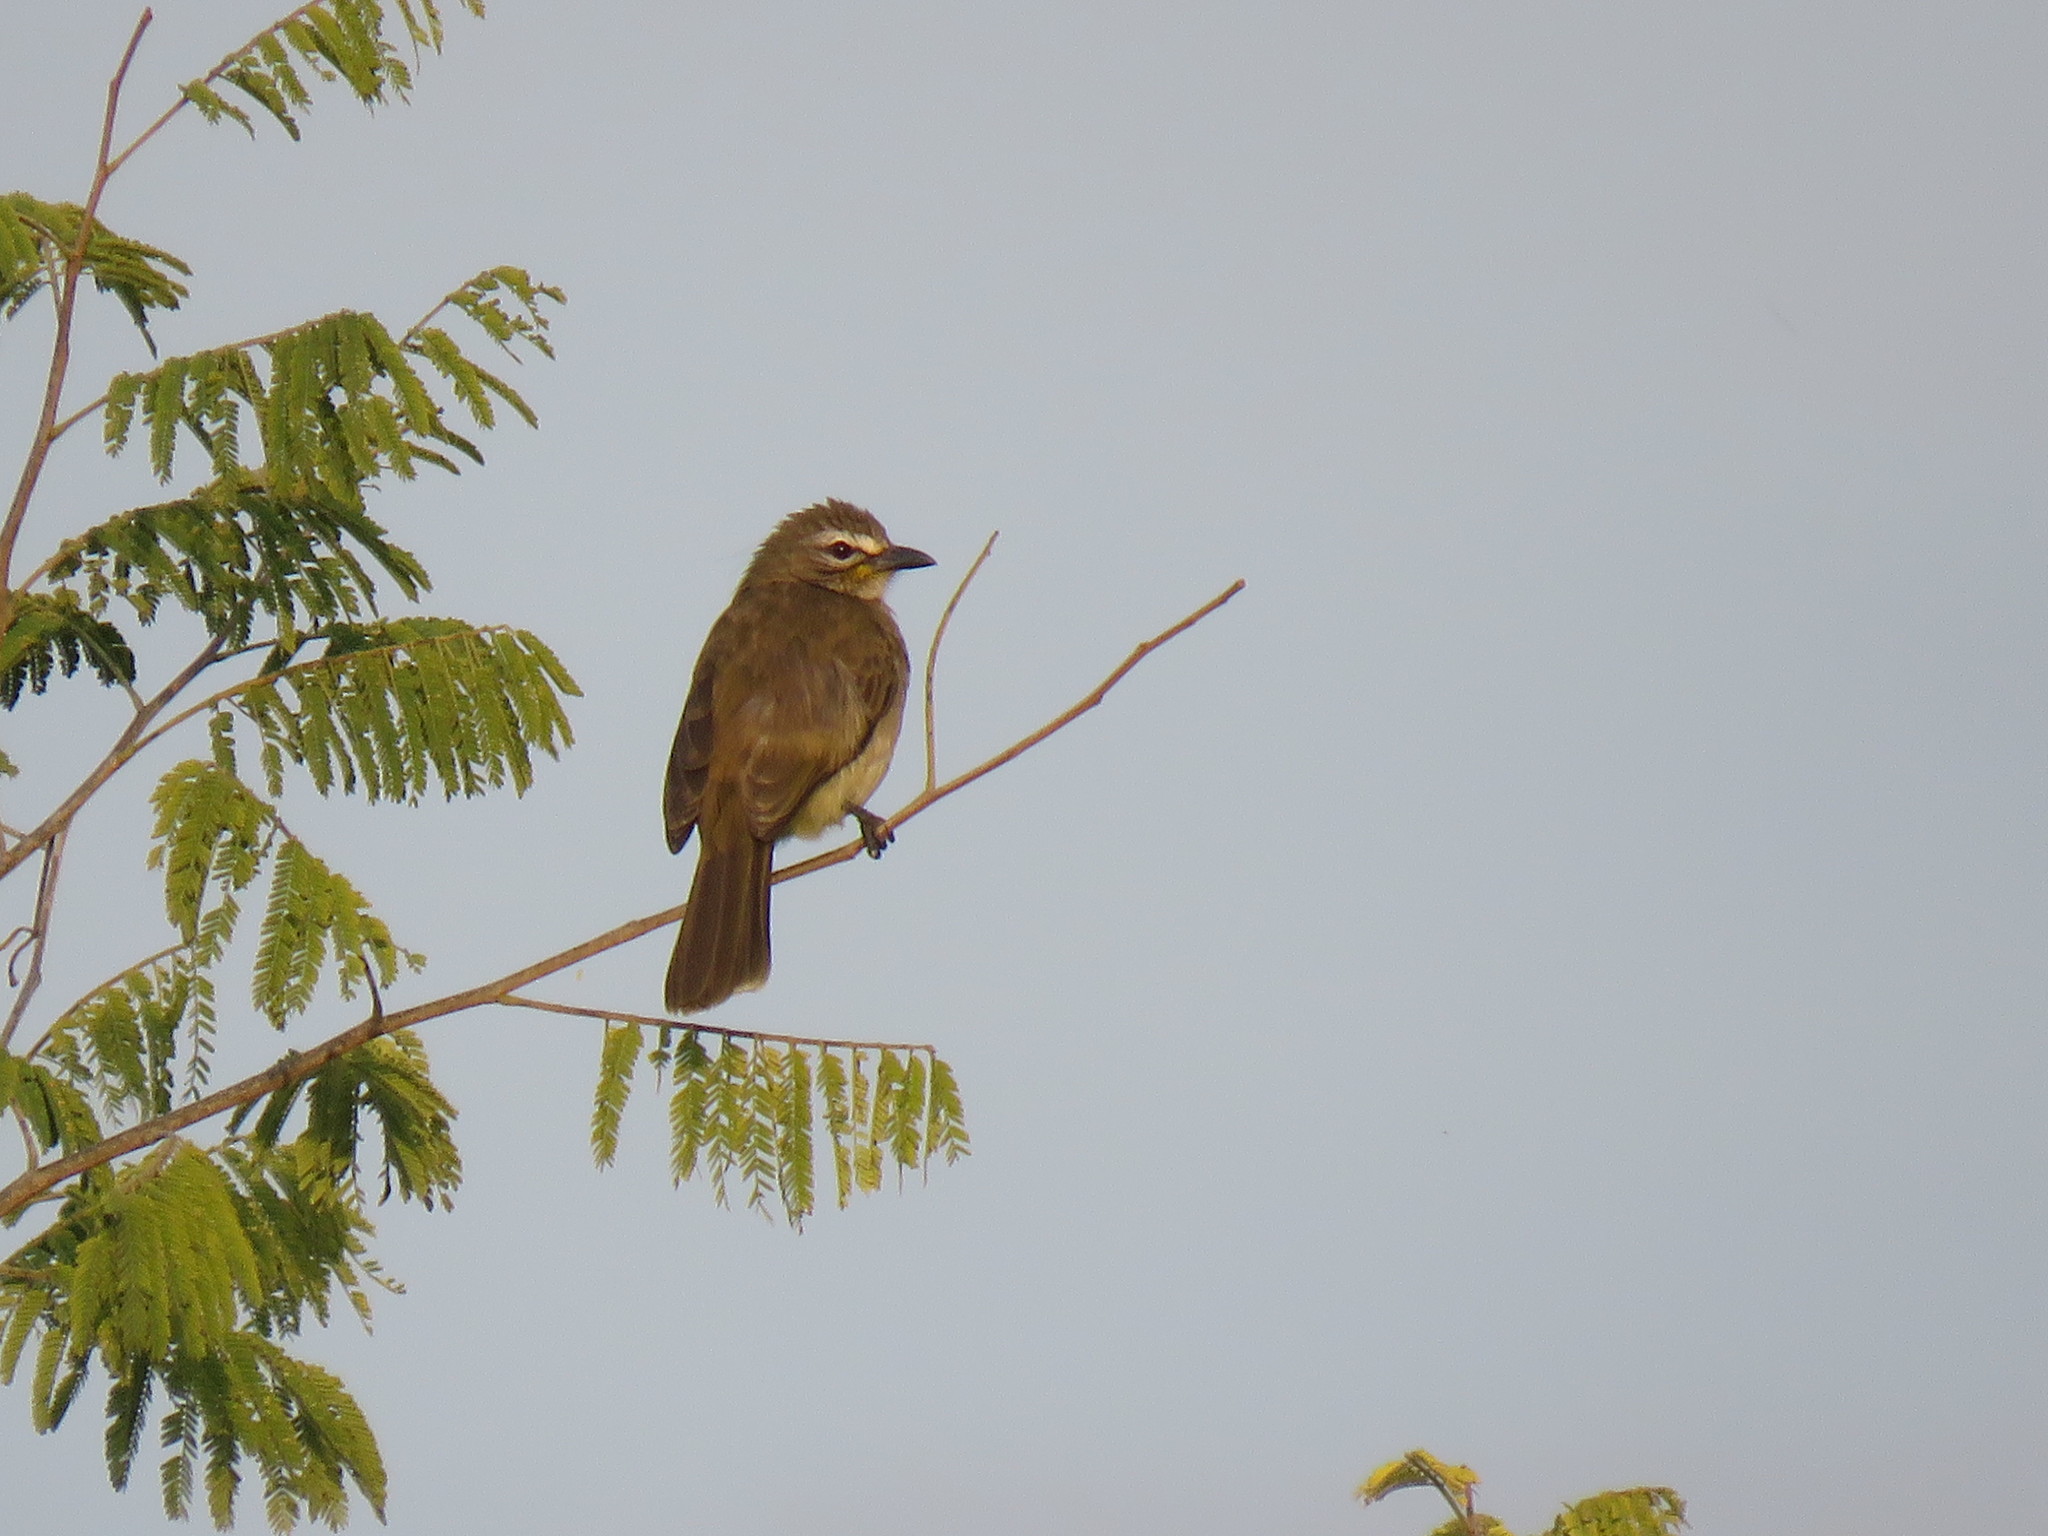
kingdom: Animalia
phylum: Chordata
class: Aves
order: Passeriformes
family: Pycnonotidae
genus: Pycnonotus
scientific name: Pycnonotus luteolus
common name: White-browed bulbul
